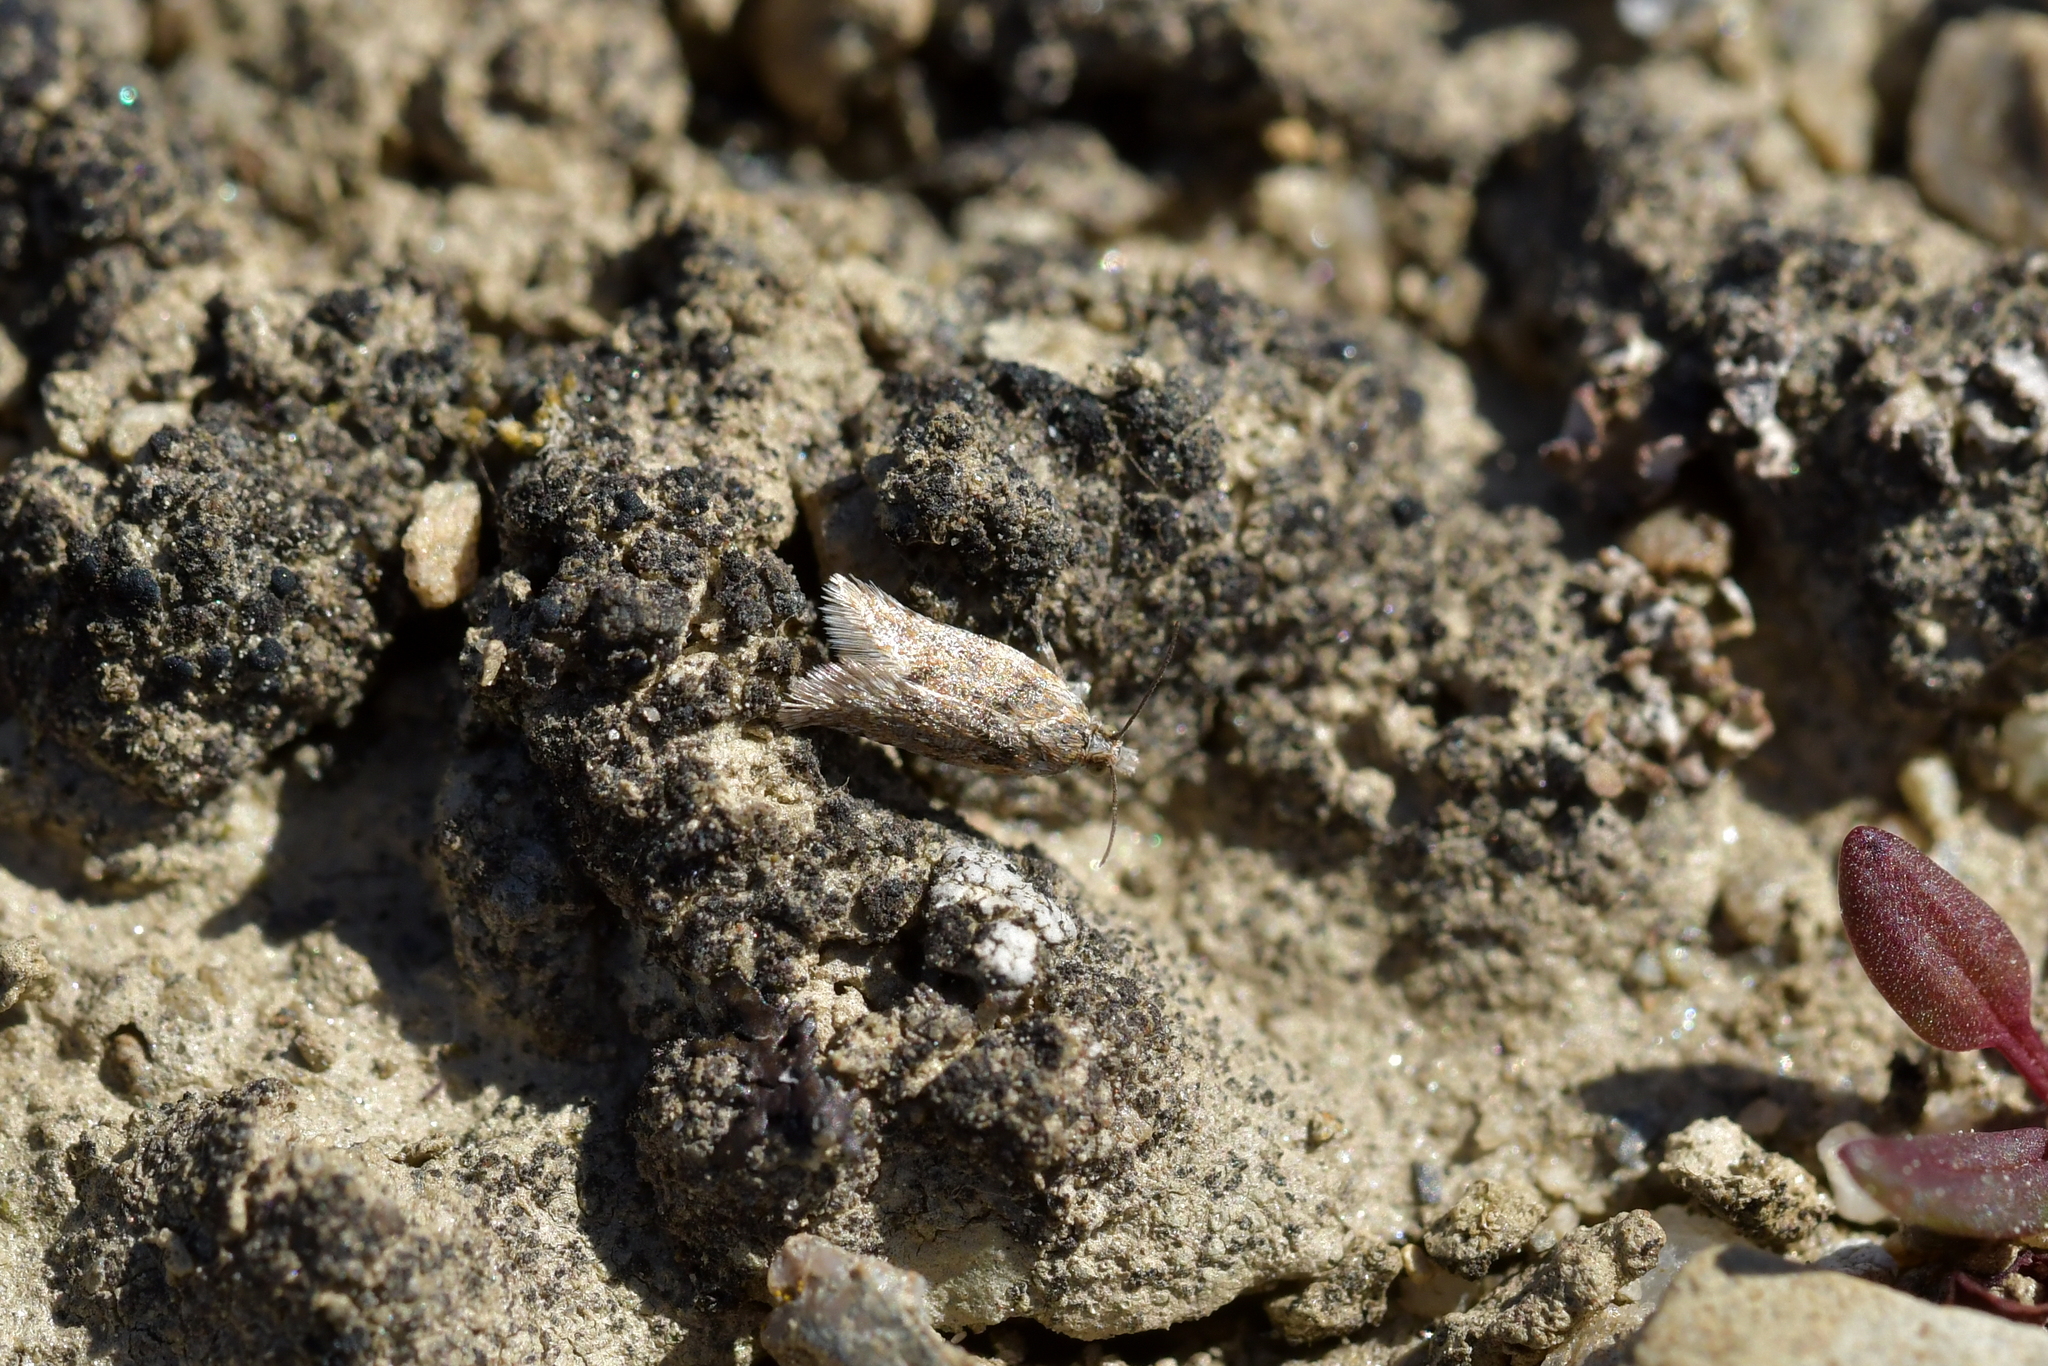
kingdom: Animalia
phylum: Arthropoda
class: Insecta
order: Lepidoptera
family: Tortricidae
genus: Eurythecta
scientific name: Eurythecta zelaea
